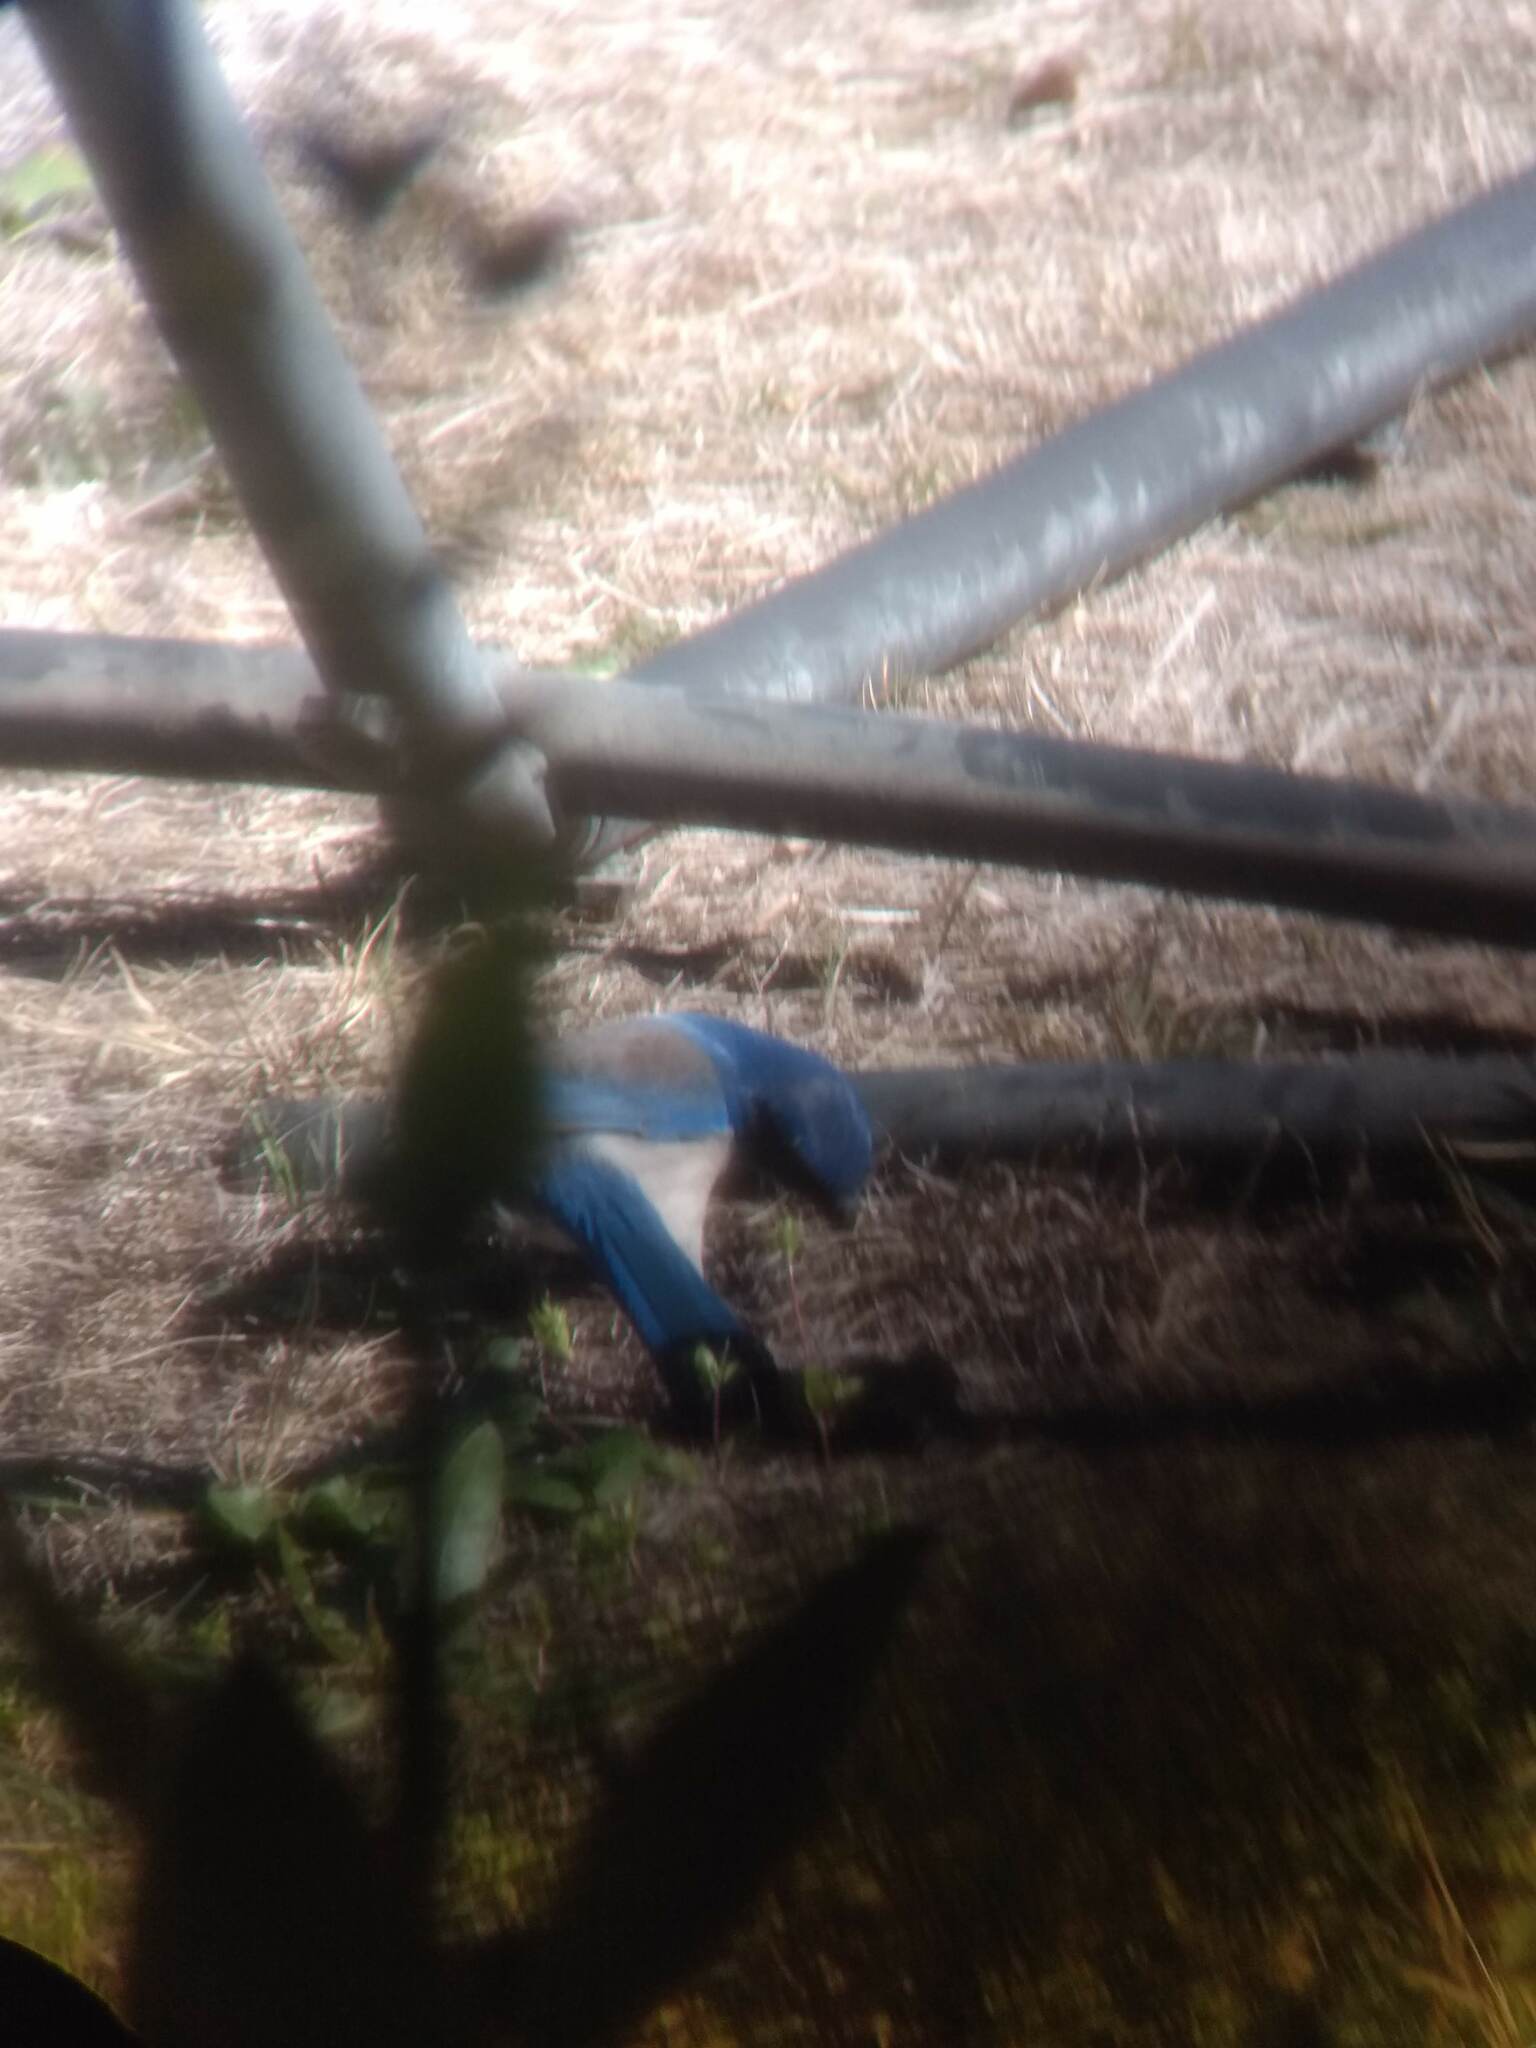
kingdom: Animalia
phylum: Chordata
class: Aves
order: Passeriformes
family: Corvidae
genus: Aphelocoma
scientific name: Aphelocoma californica
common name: California scrub-jay
